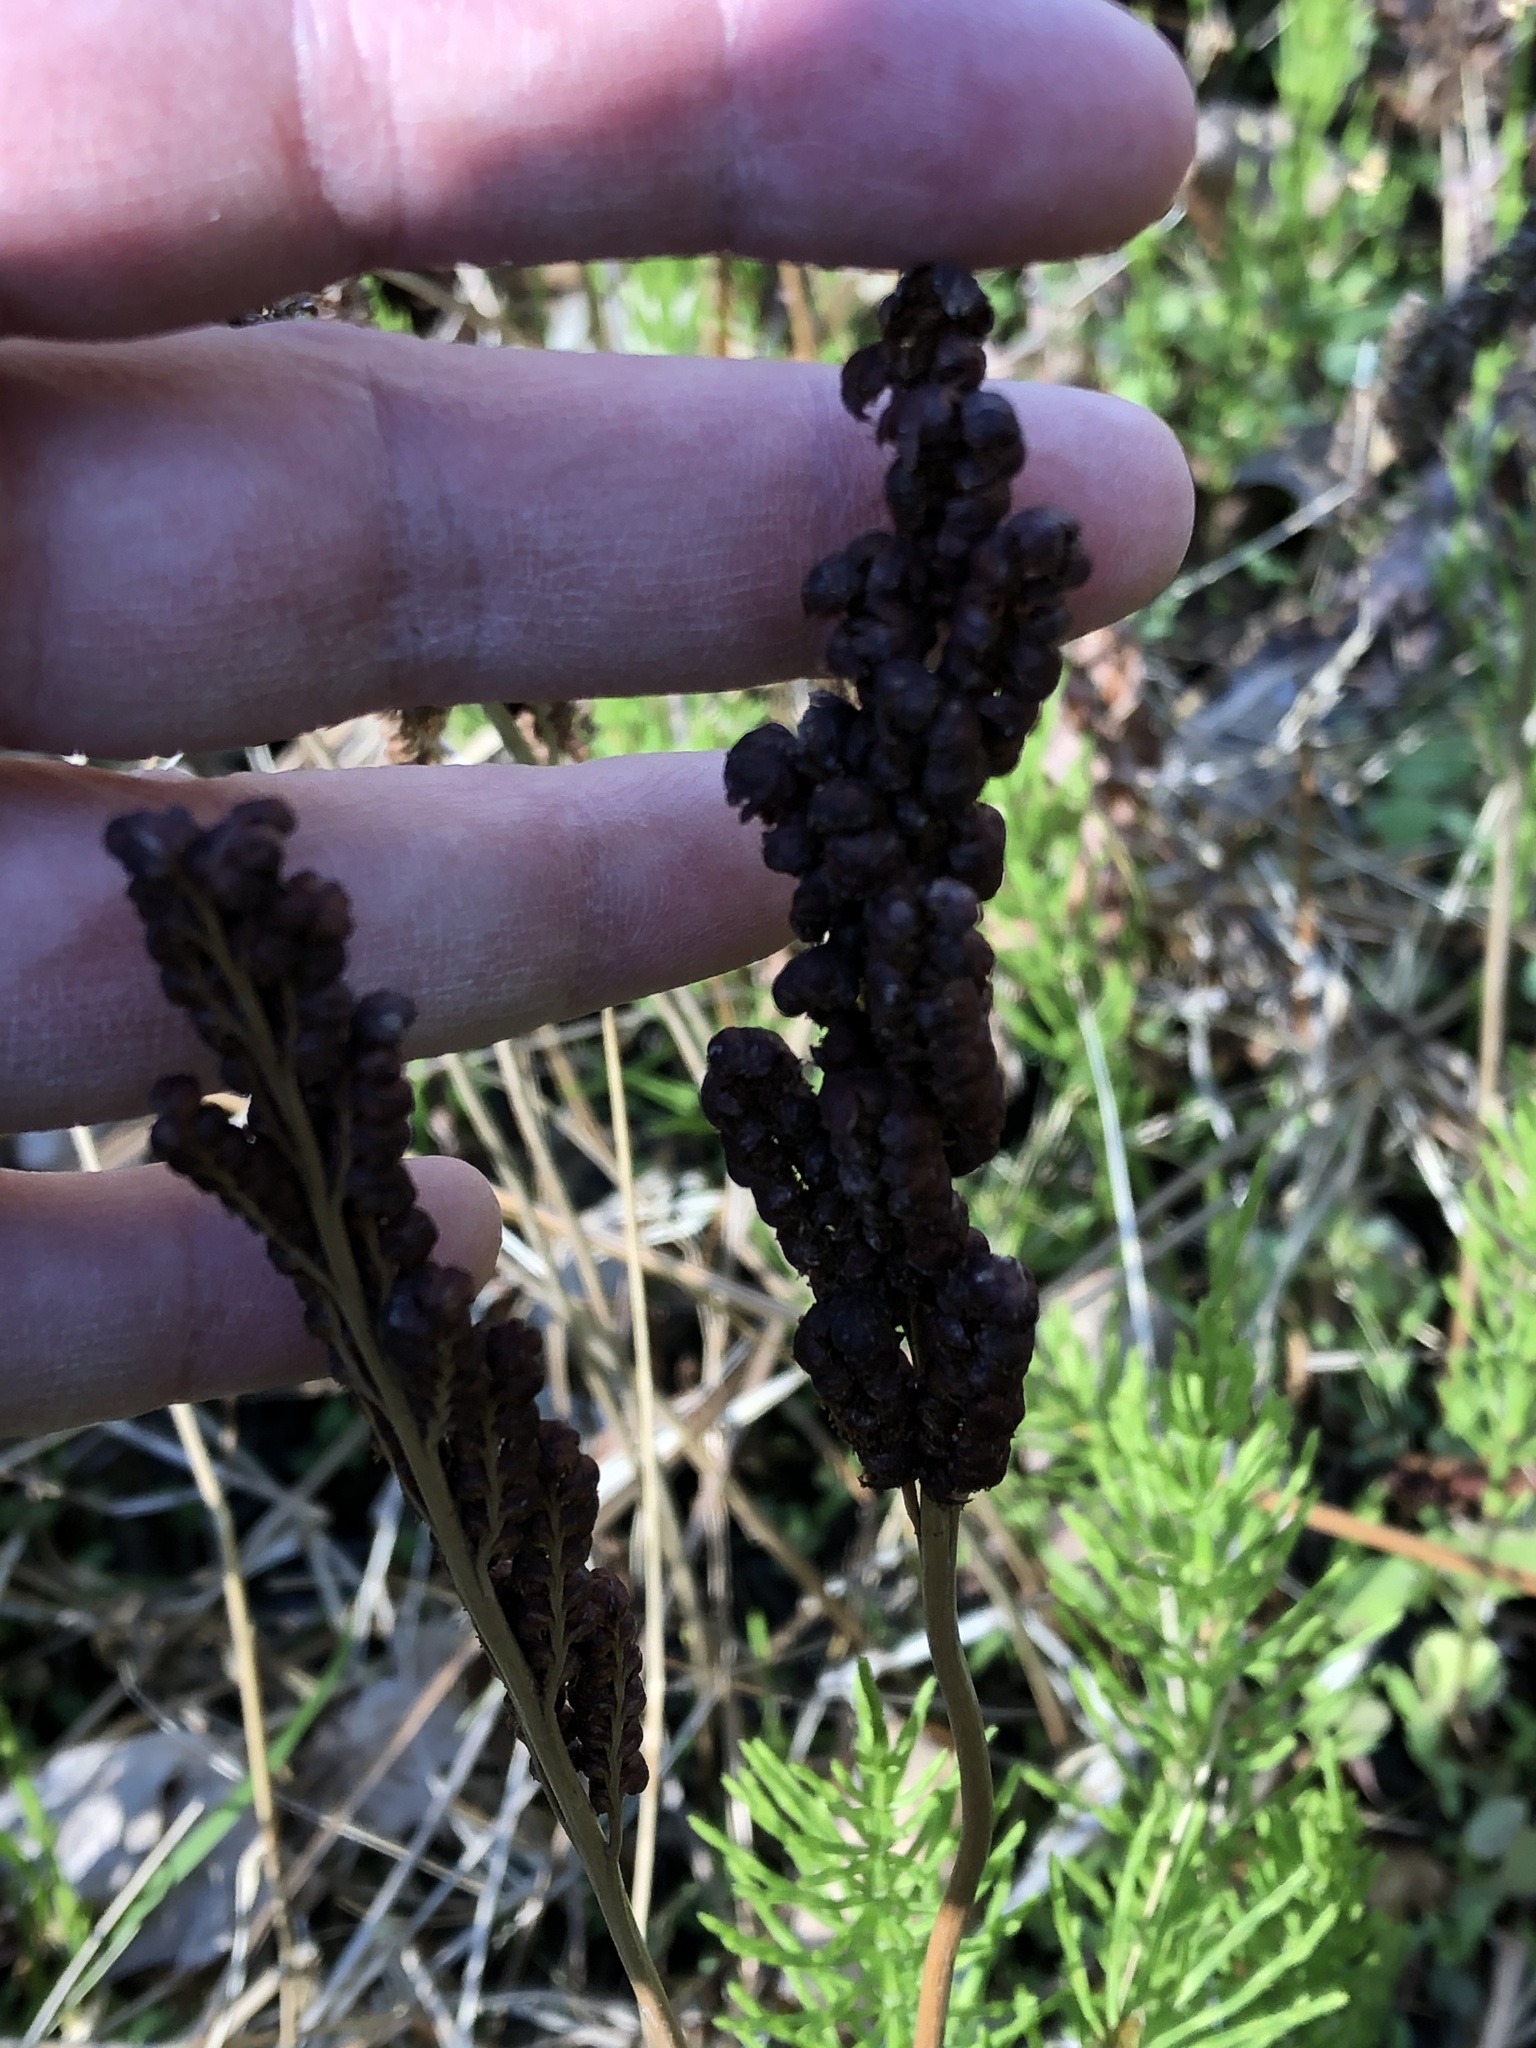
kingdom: Plantae
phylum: Tracheophyta
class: Polypodiopsida
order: Polypodiales
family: Onocleaceae
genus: Onoclea
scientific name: Onoclea sensibilis
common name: Sensitive fern
